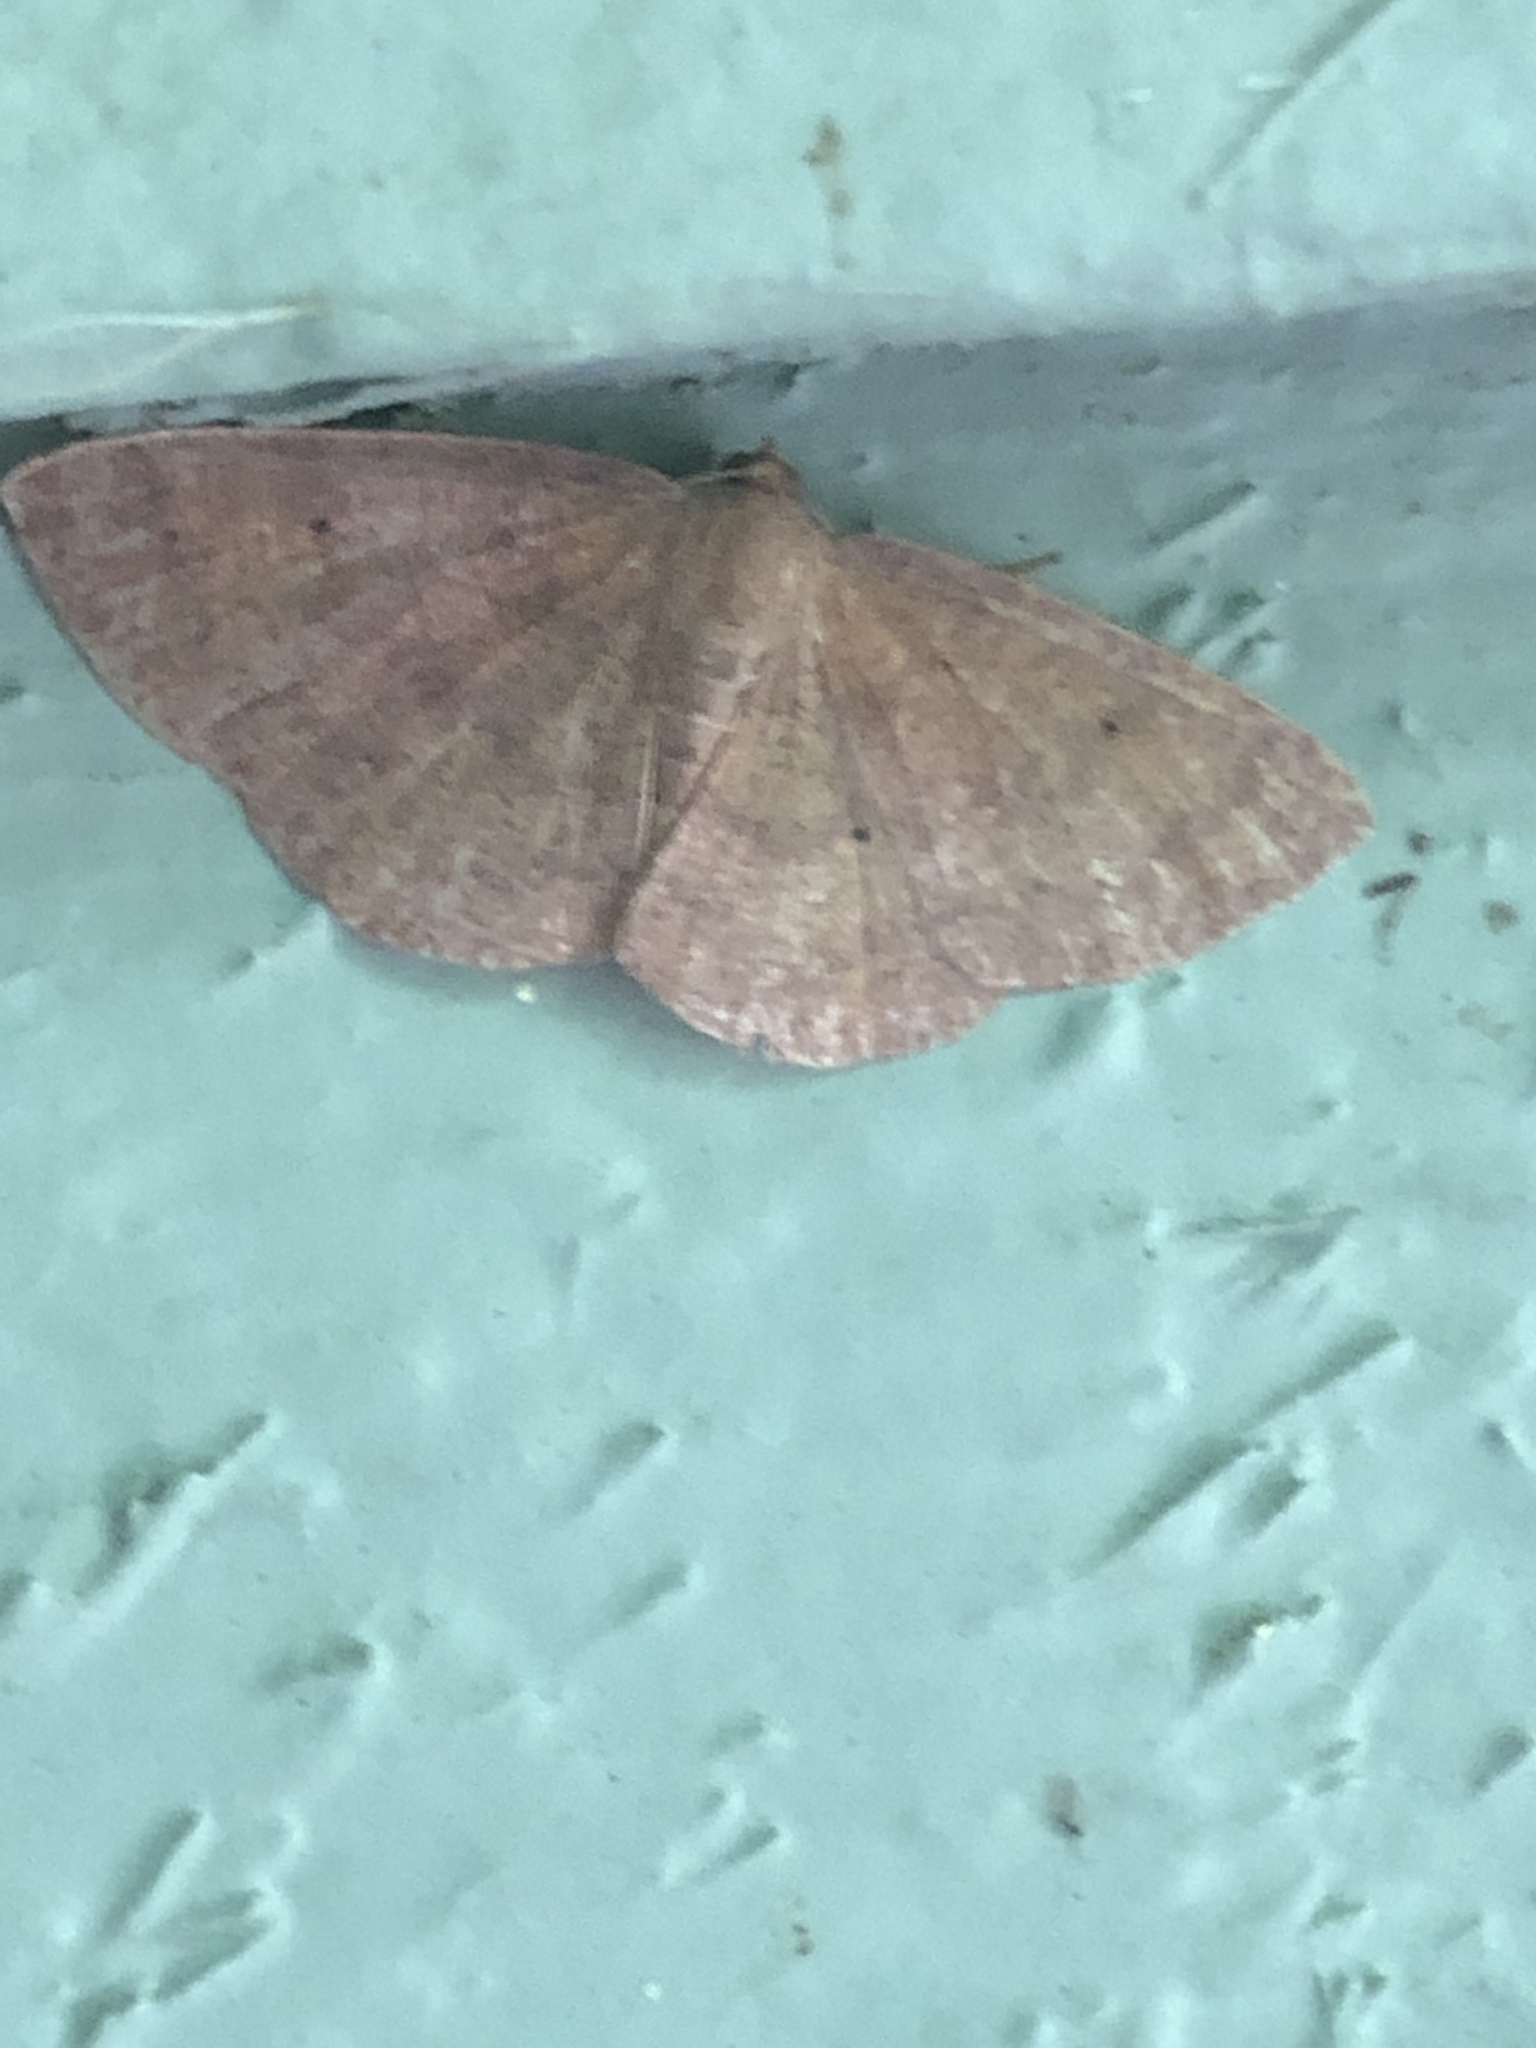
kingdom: Animalia
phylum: Arthropoda
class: Insecta
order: Lepidoptera
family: Geometridae
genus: Ilexia
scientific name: Ilexia intractata
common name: Black-dotted ruddy moth
